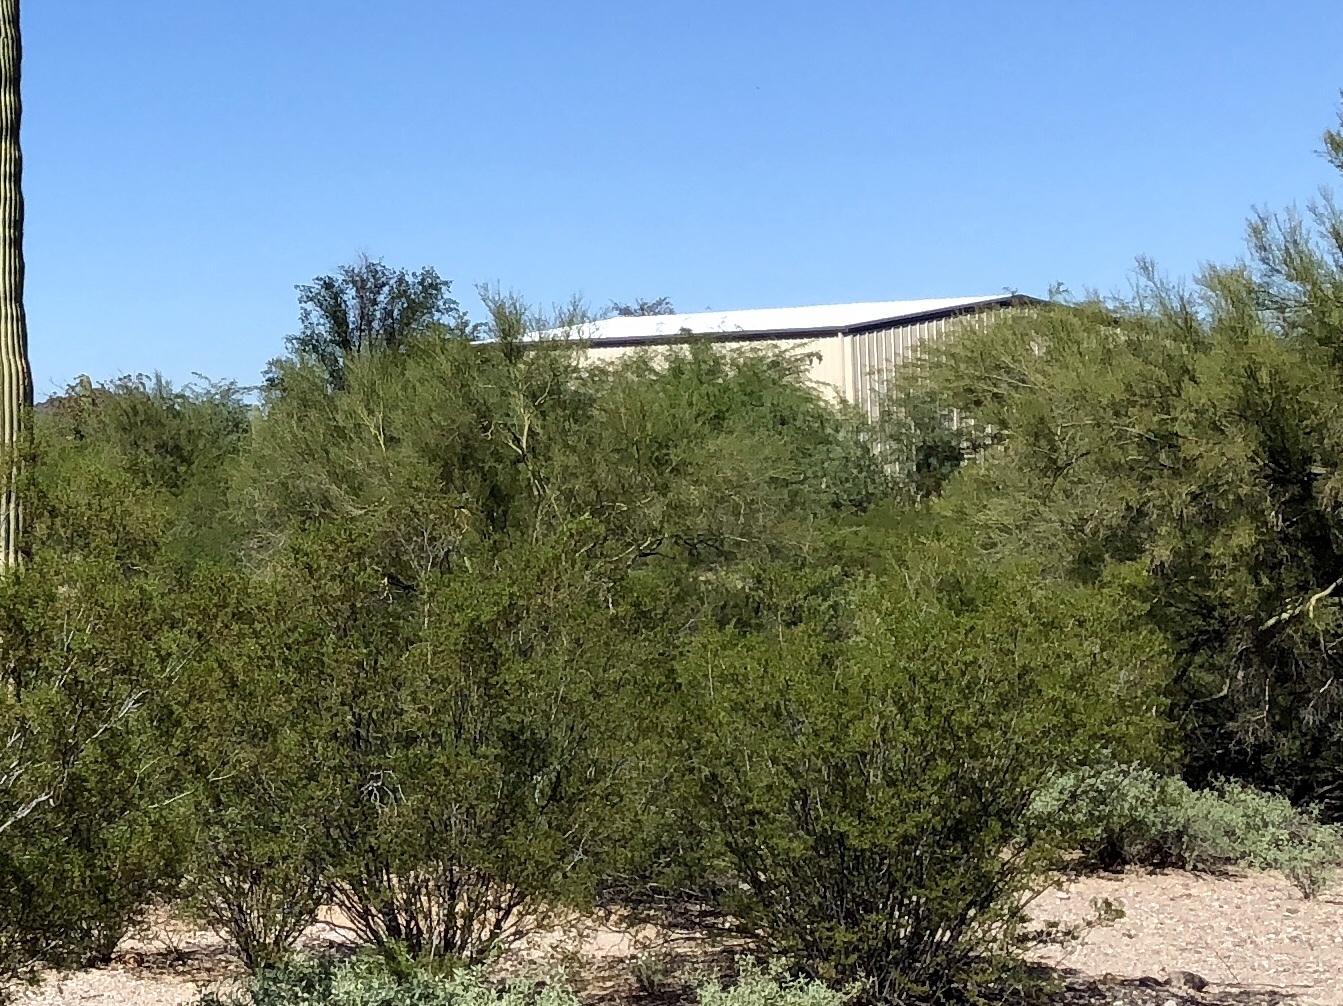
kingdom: Plantae
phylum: Tracheophyta
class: Magnoliopsida
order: Zygophyllales
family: Zygophyllaceae
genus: Larrea
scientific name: Larrea tridentata
